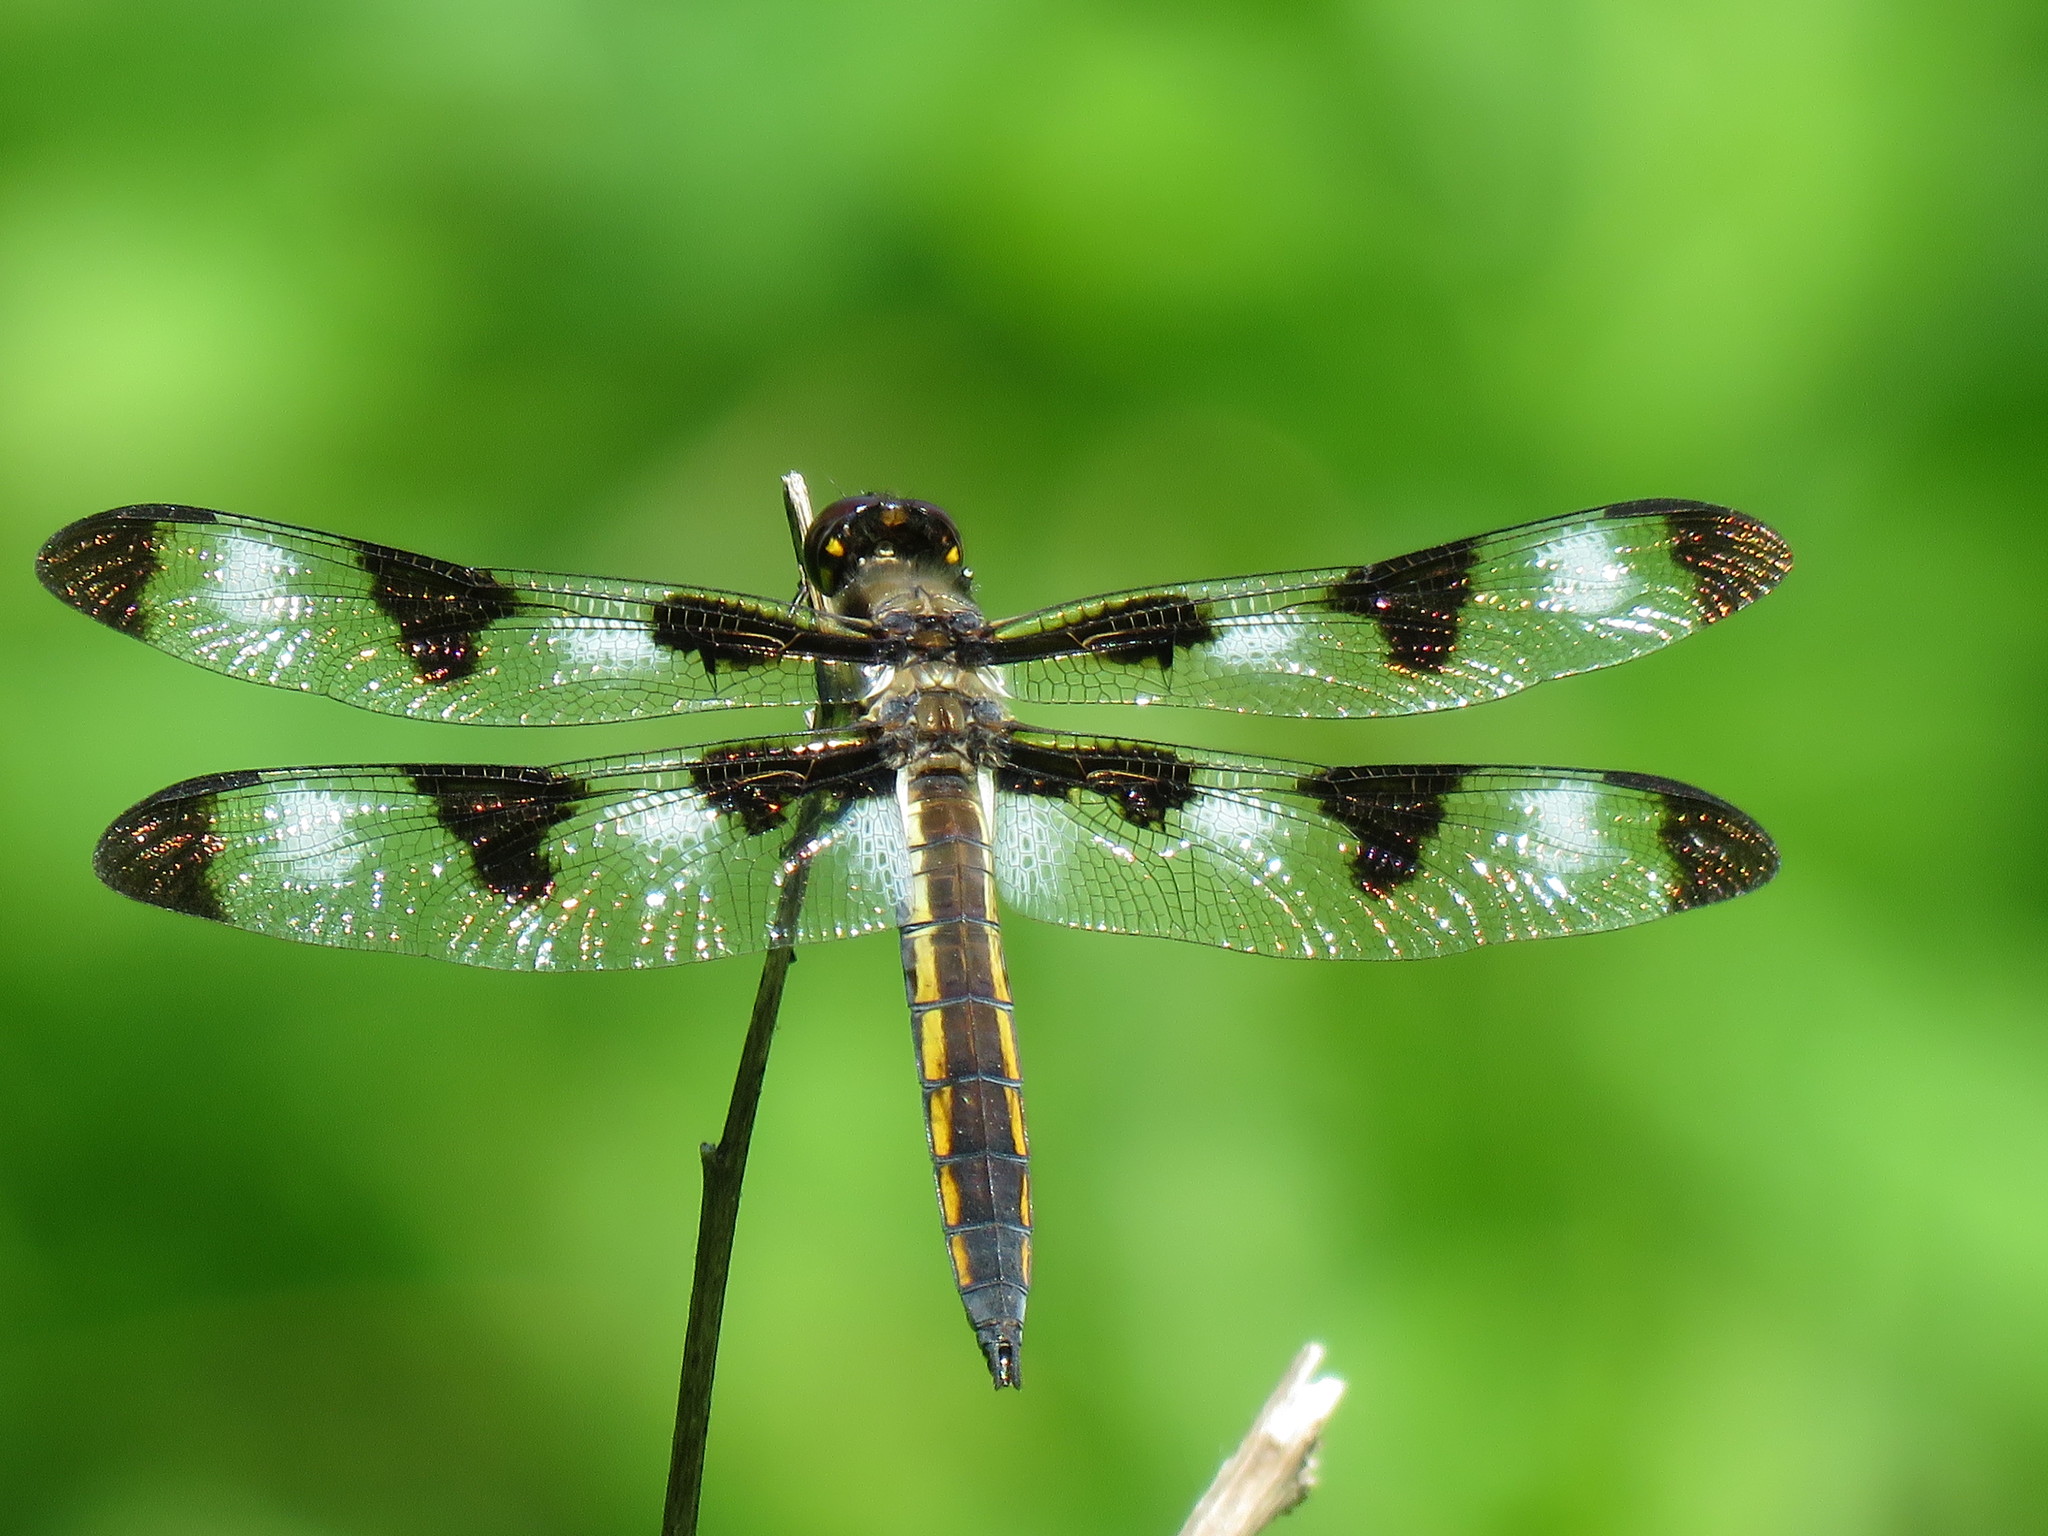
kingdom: Animalia
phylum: Arthropoda
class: Insecta
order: Odonata
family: Libellulidae
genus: Libellula
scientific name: Libellula pulchella
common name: Twelve-spotted skimmer
